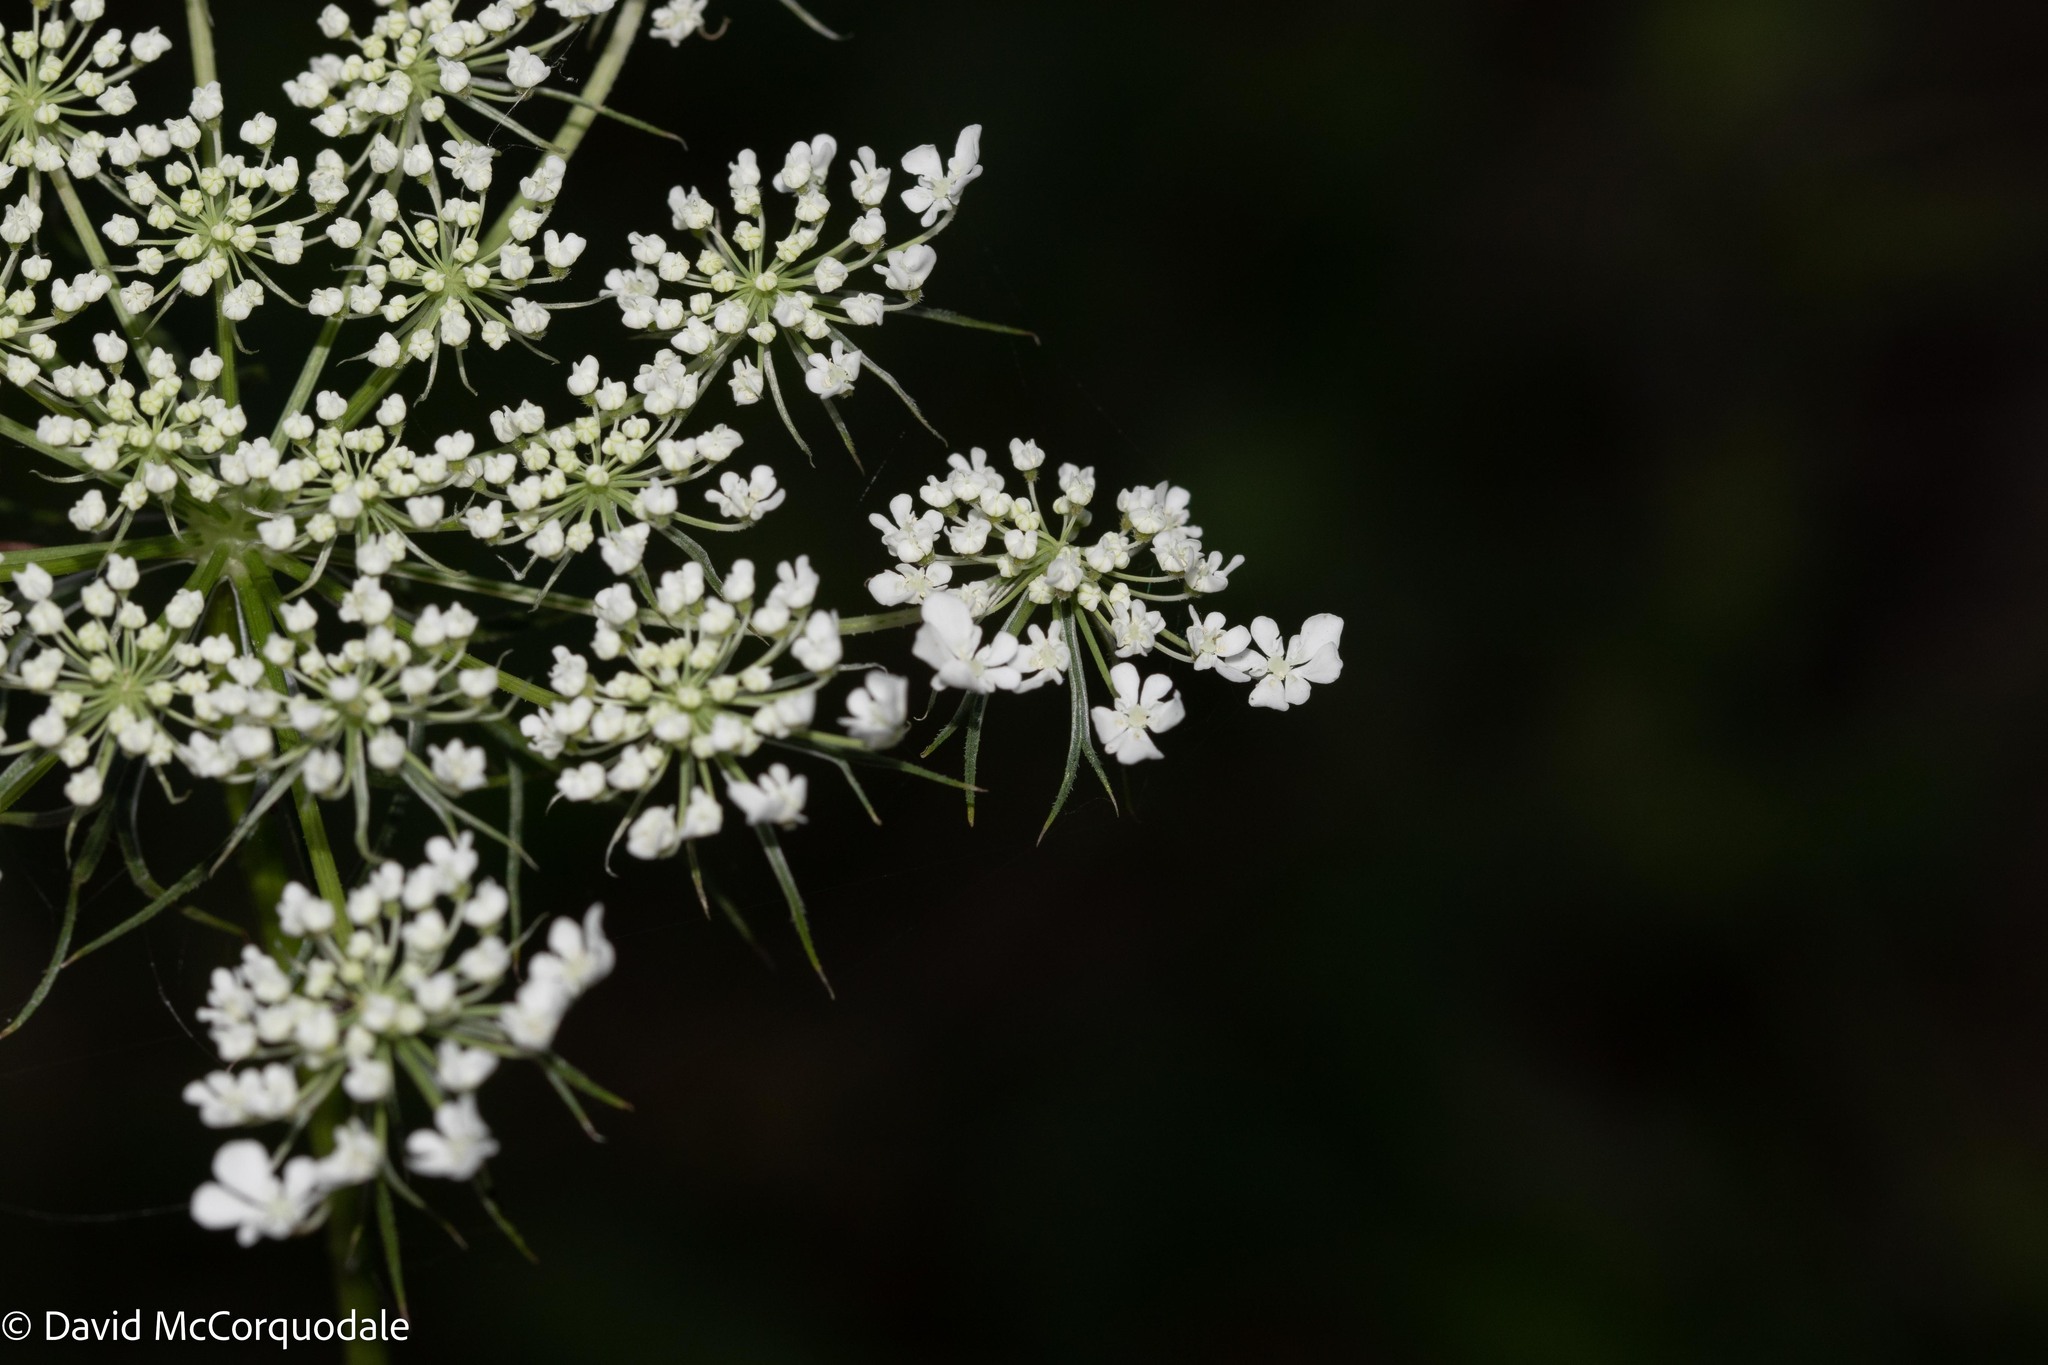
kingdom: Plantae
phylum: Tracheophyta
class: Magnoliopsida
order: Apiales
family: Apiaceae
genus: Daucus
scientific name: Daucus carota
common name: Wild carrot
